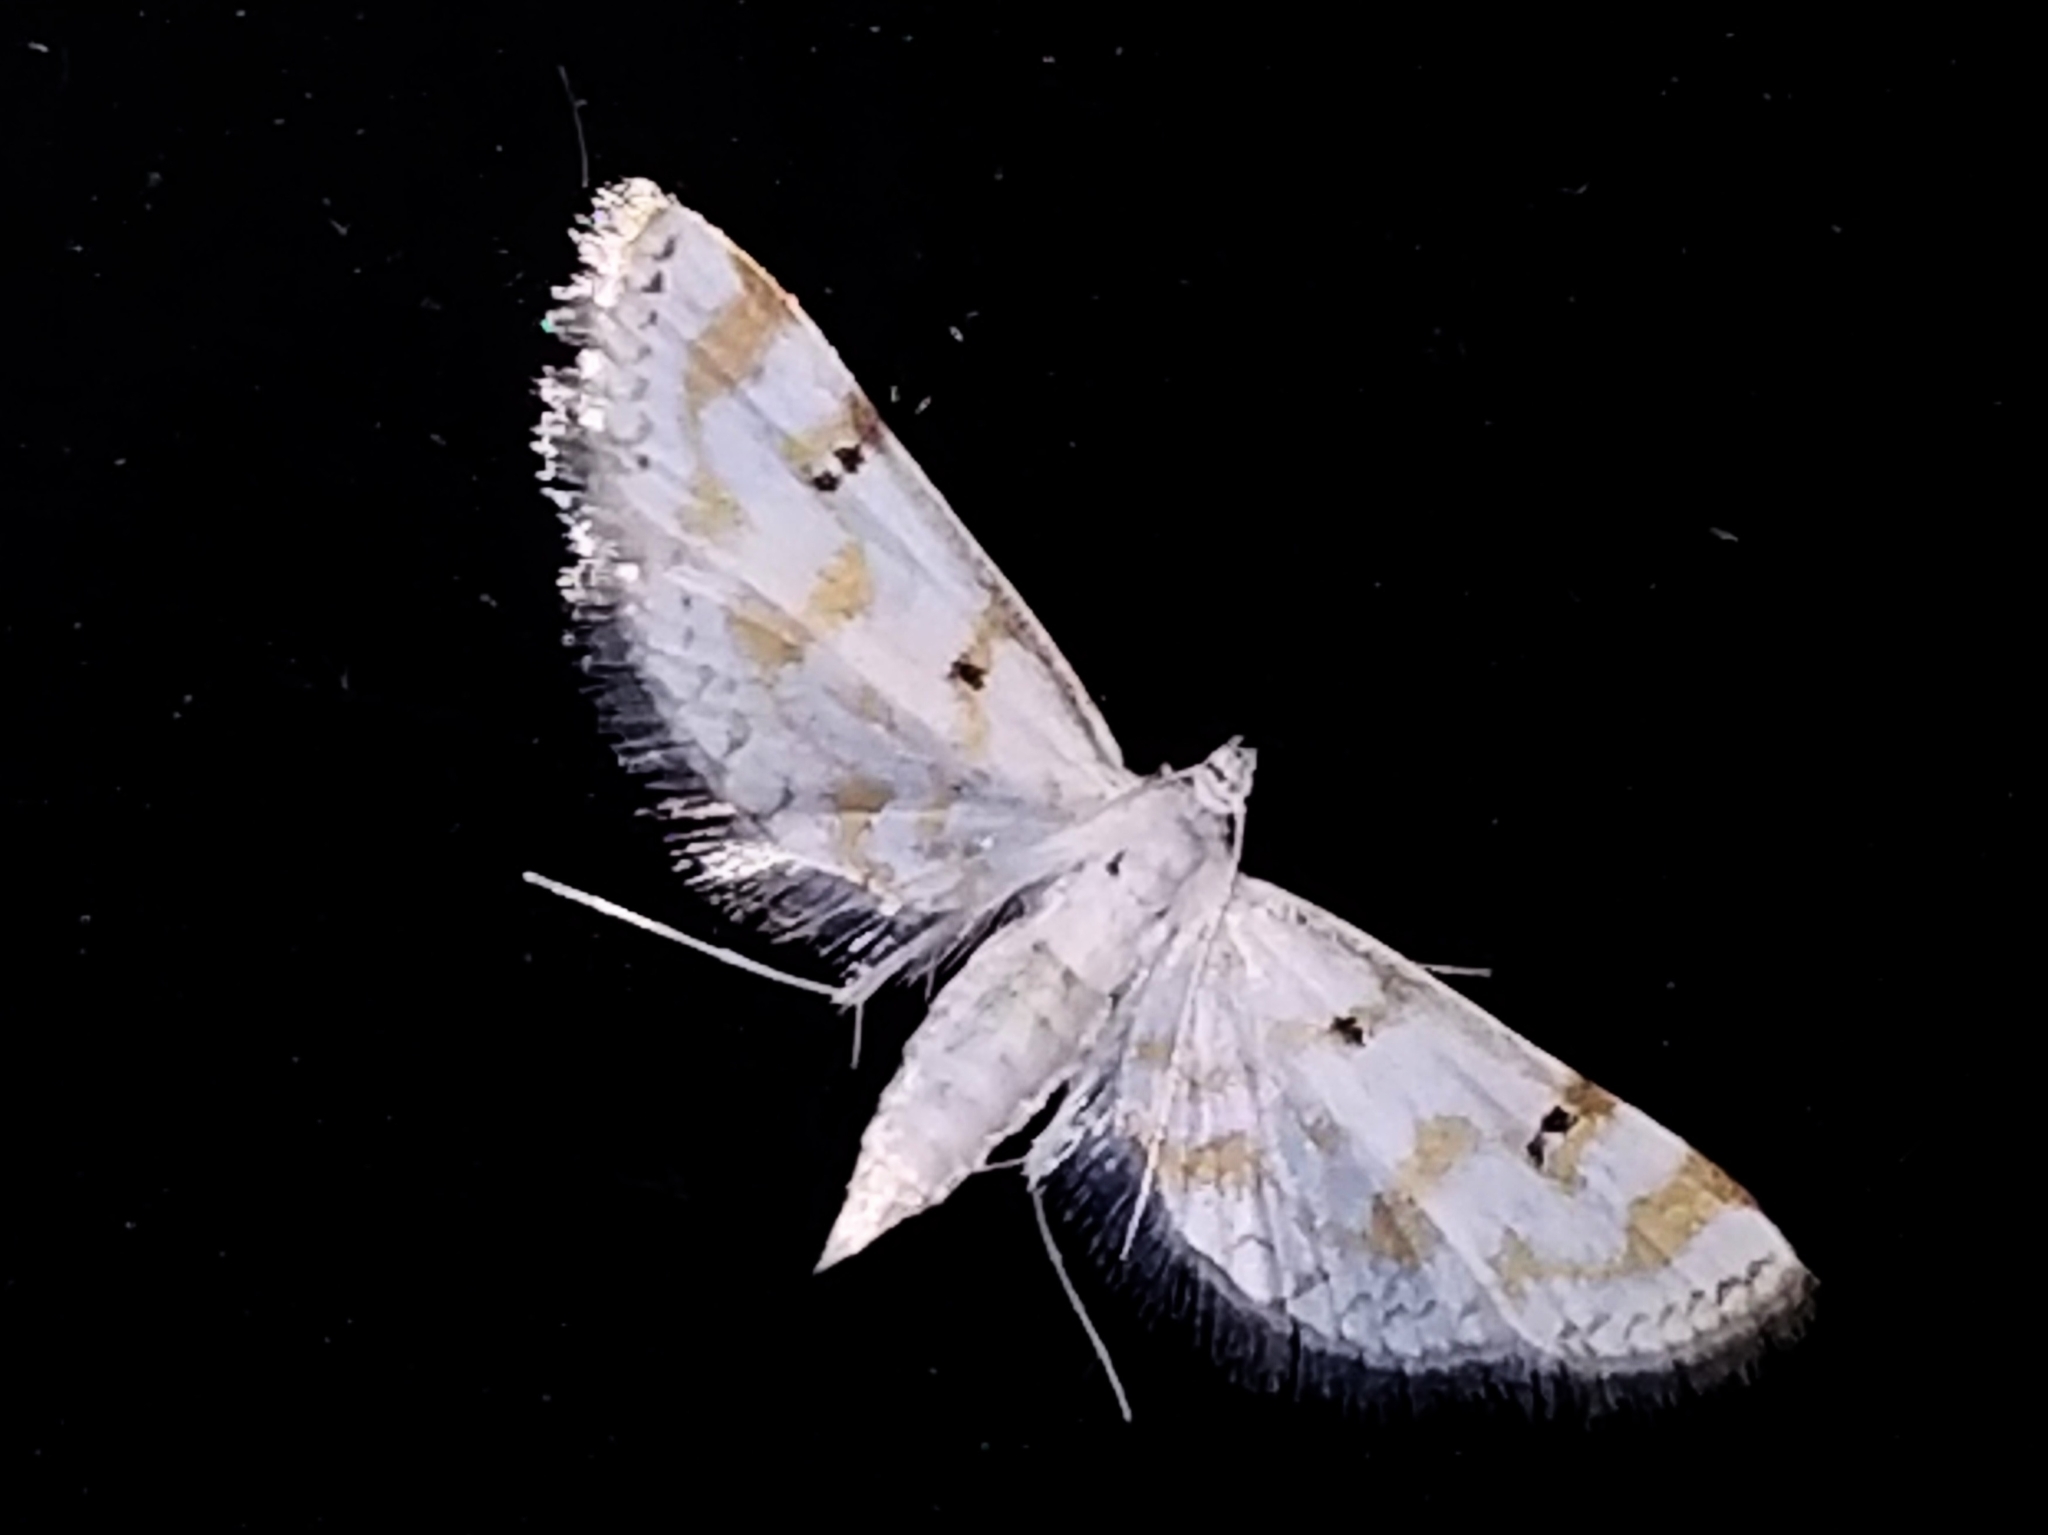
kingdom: Animalia
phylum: Arthropoda
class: Insecta
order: Lepidoptera
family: Crambidae
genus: Parapoynx
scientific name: Parapoynx stagnalis
